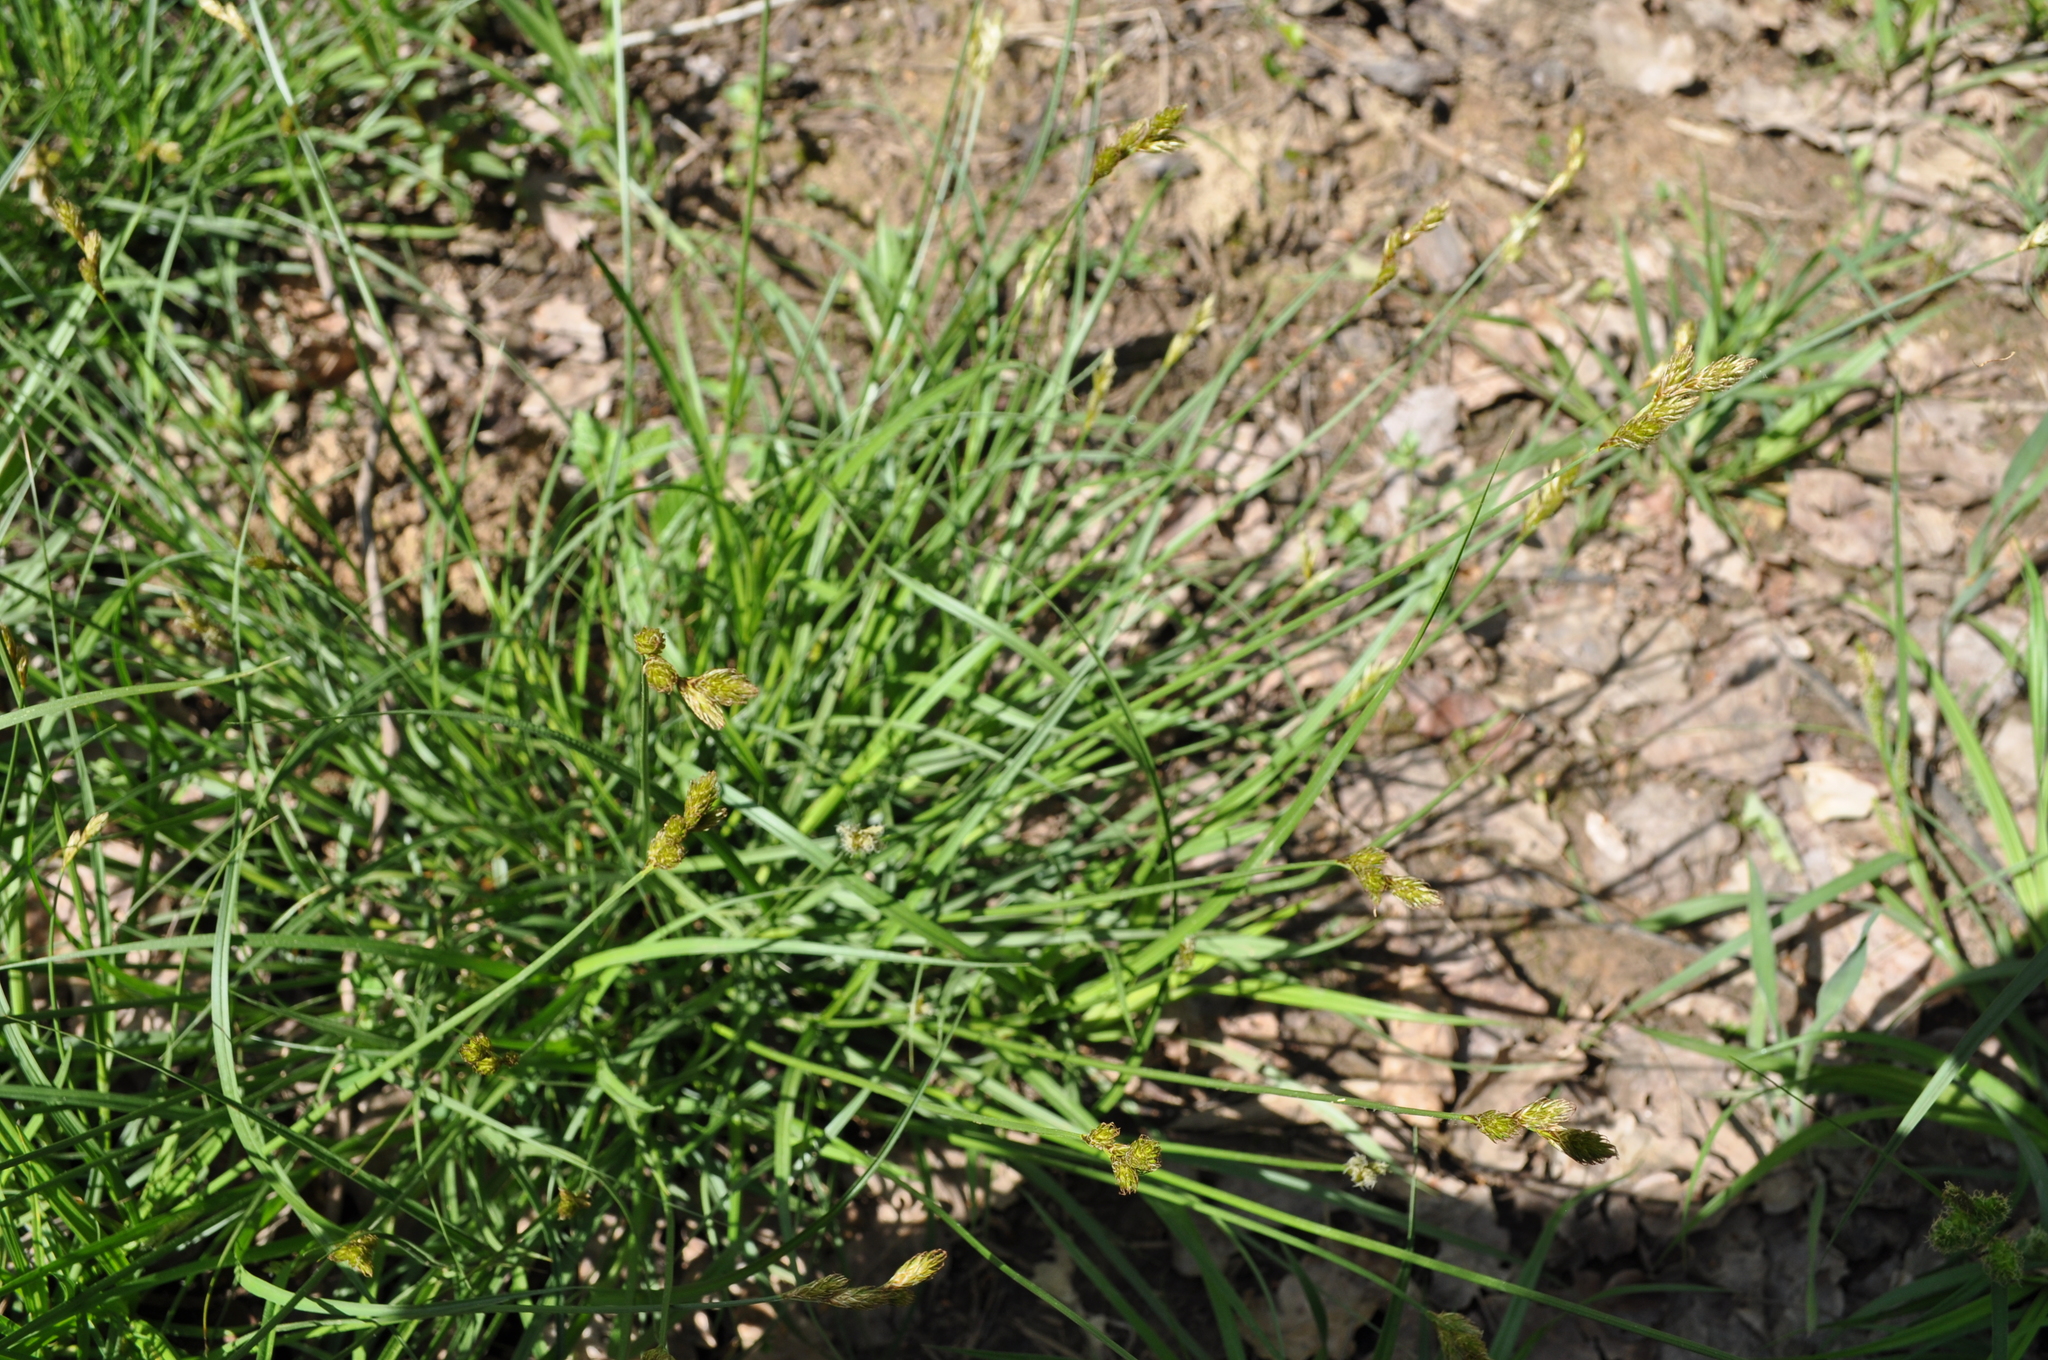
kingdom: Plantae
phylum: Tracheophyta
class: Liliopsida
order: Poales
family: Cyperaceae
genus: Carex
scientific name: Carex leporina
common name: Oval sedge
